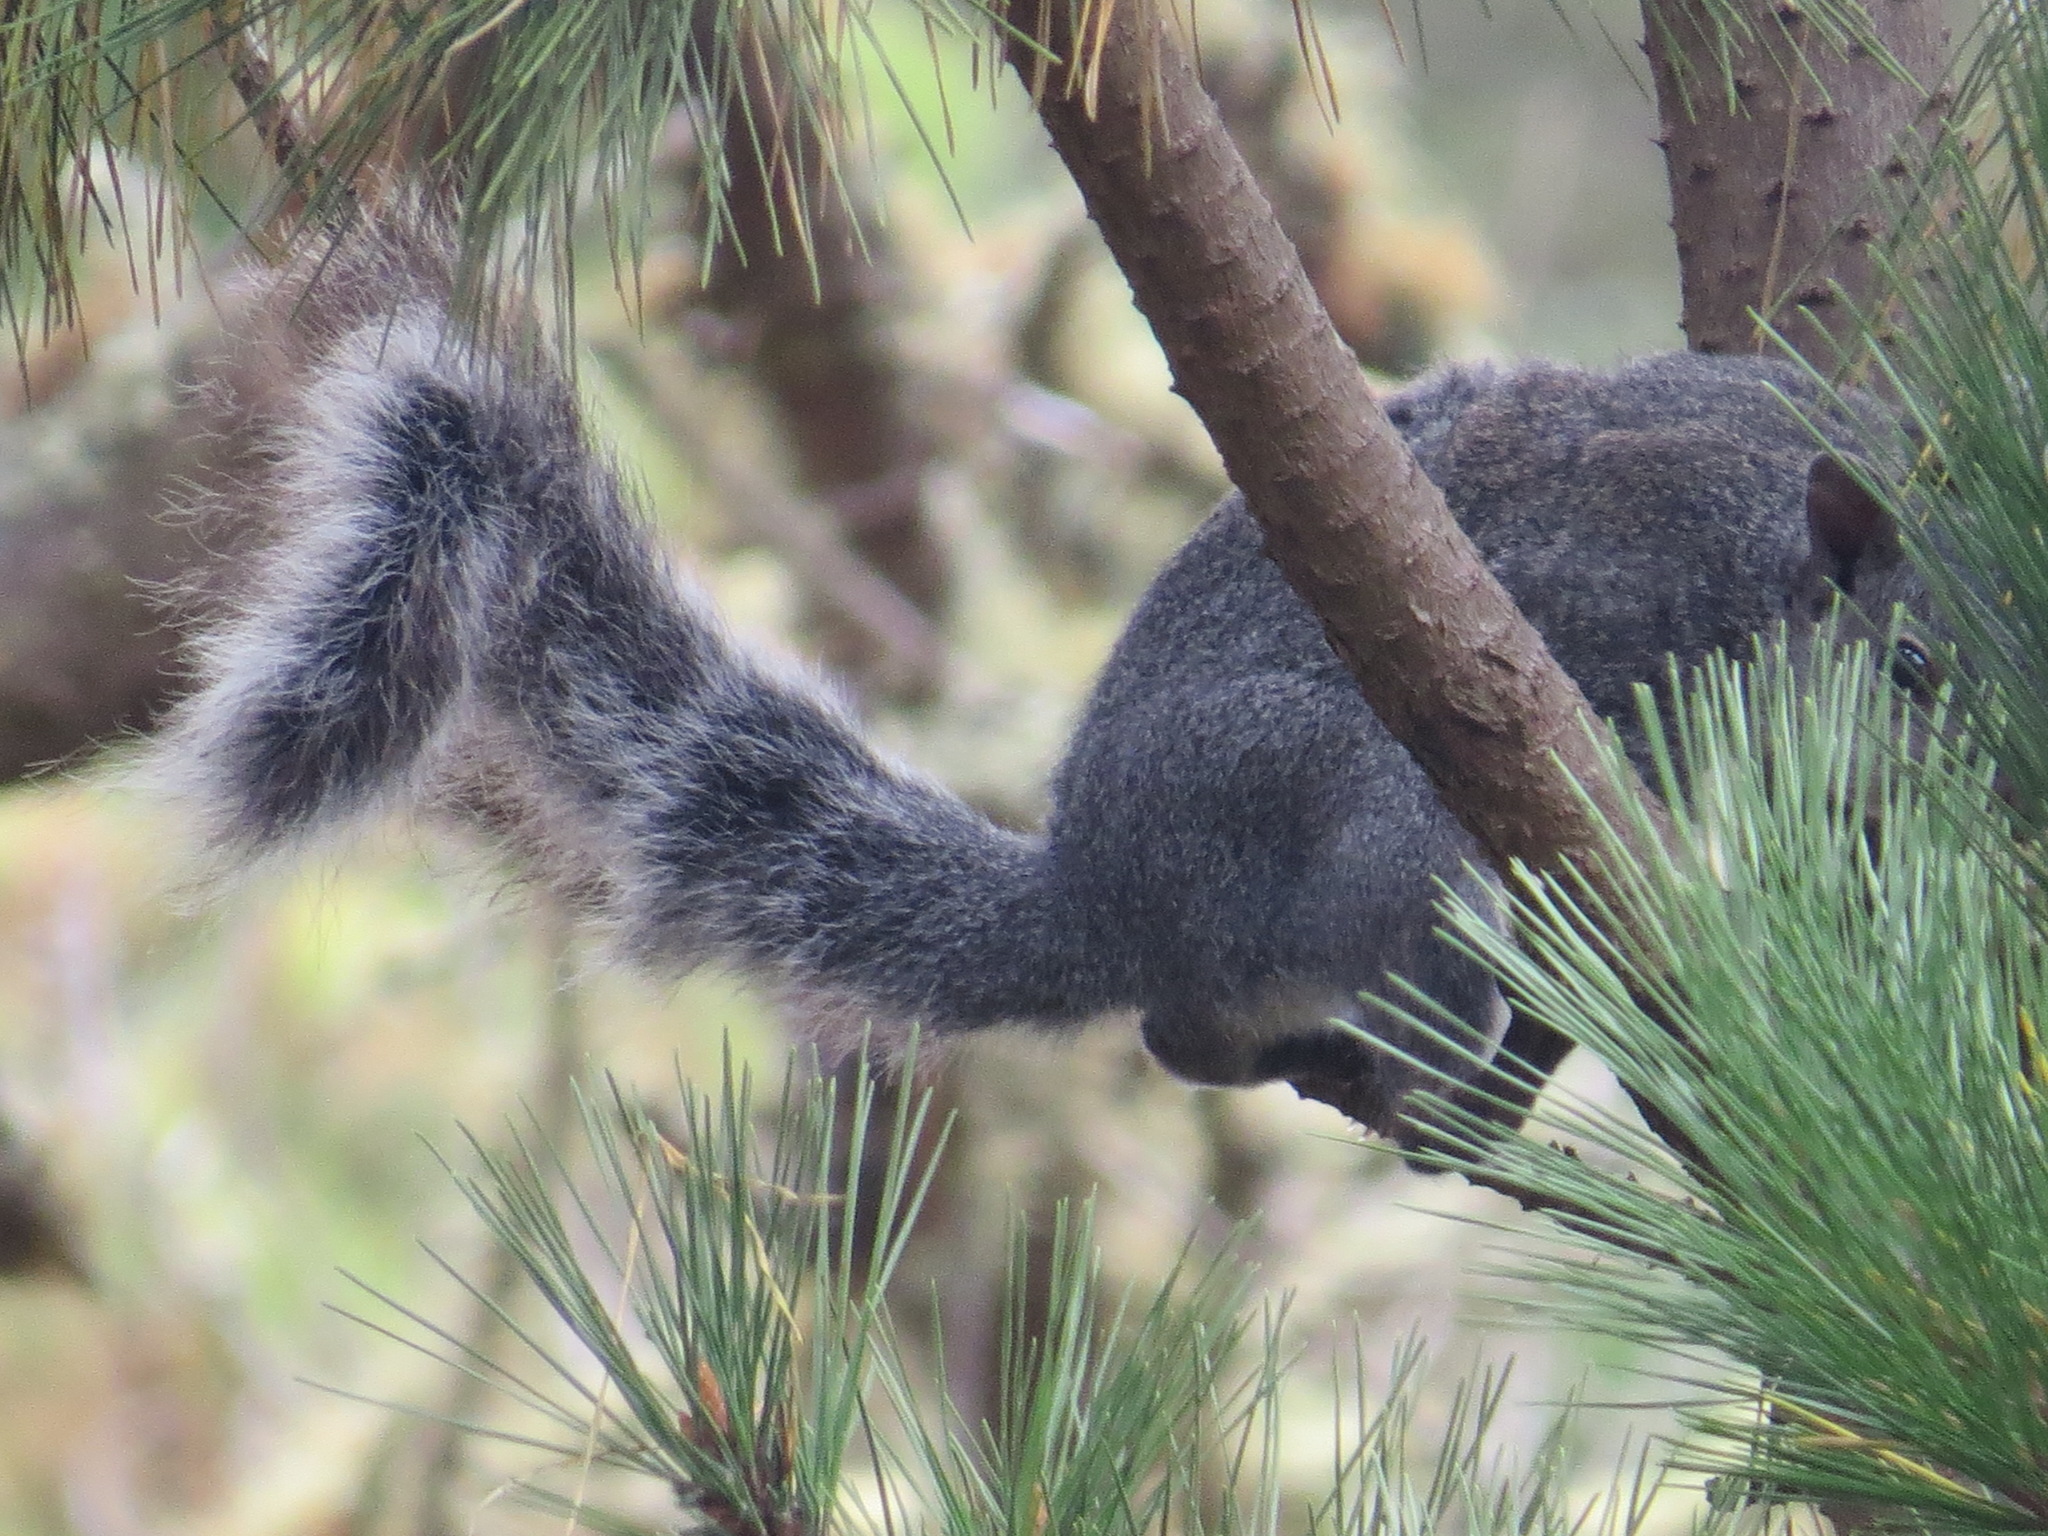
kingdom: Animalia
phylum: Chordata
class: Mammalia
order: Rodentia
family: Sciuridae
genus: Sciurus
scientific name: Sciurus griseus
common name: Western gray squirrel
